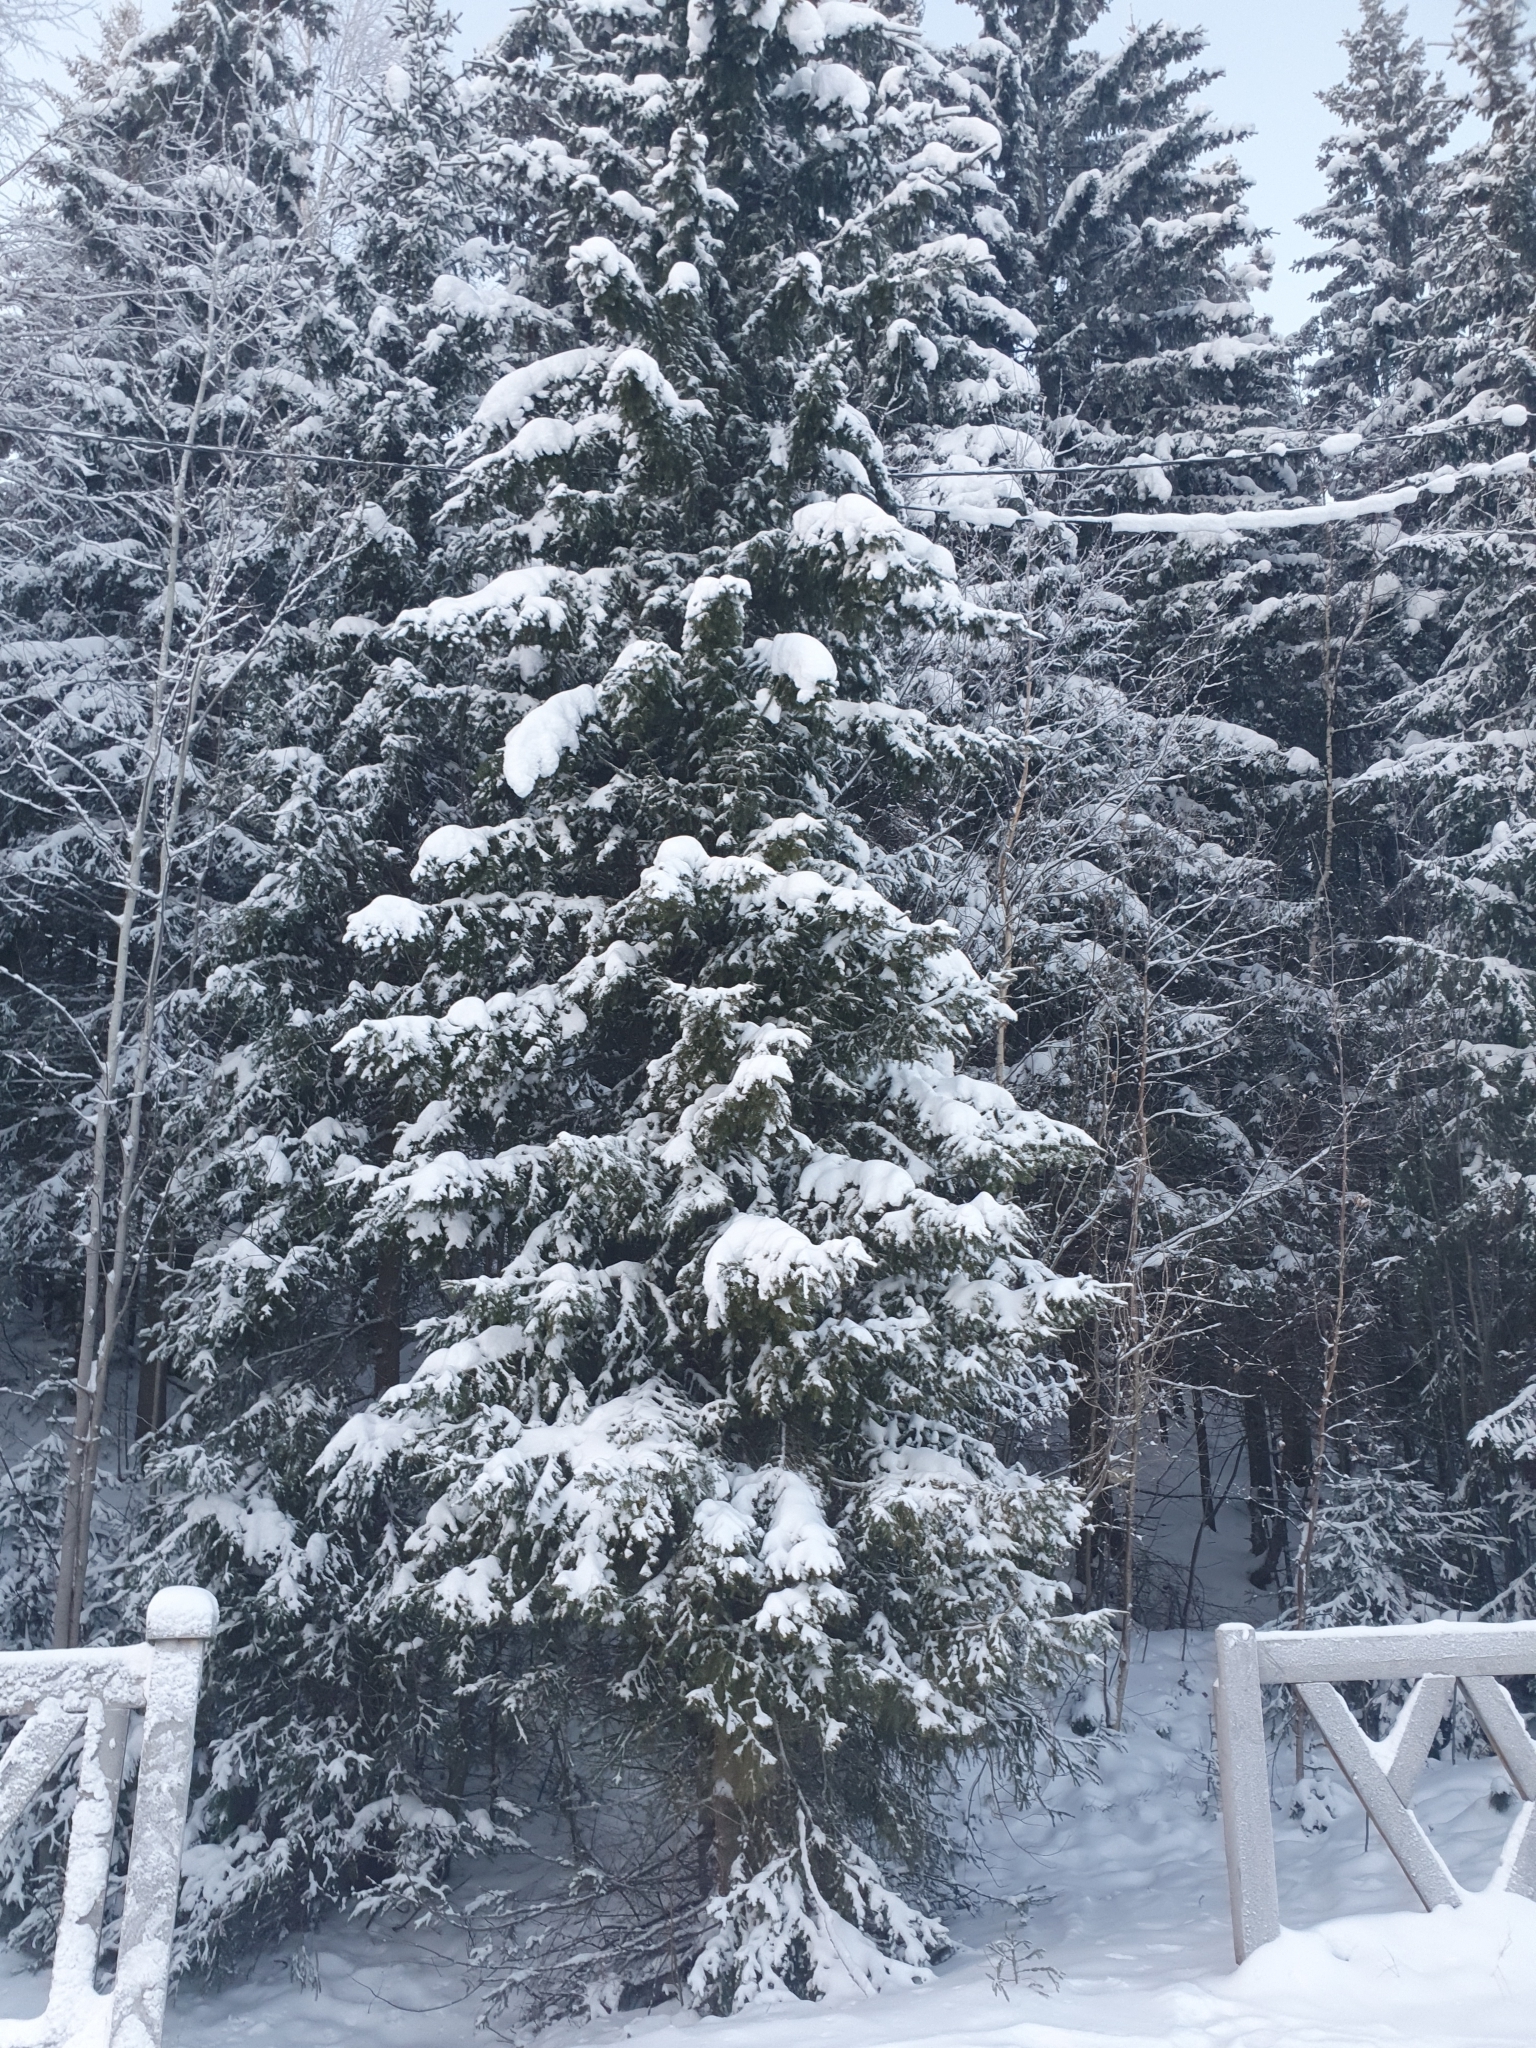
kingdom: Plantae
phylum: Tracheophyta
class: Pinopsida
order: Pinales
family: Pinaceae
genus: Picea
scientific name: Picea obovata
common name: Siberian spruce
